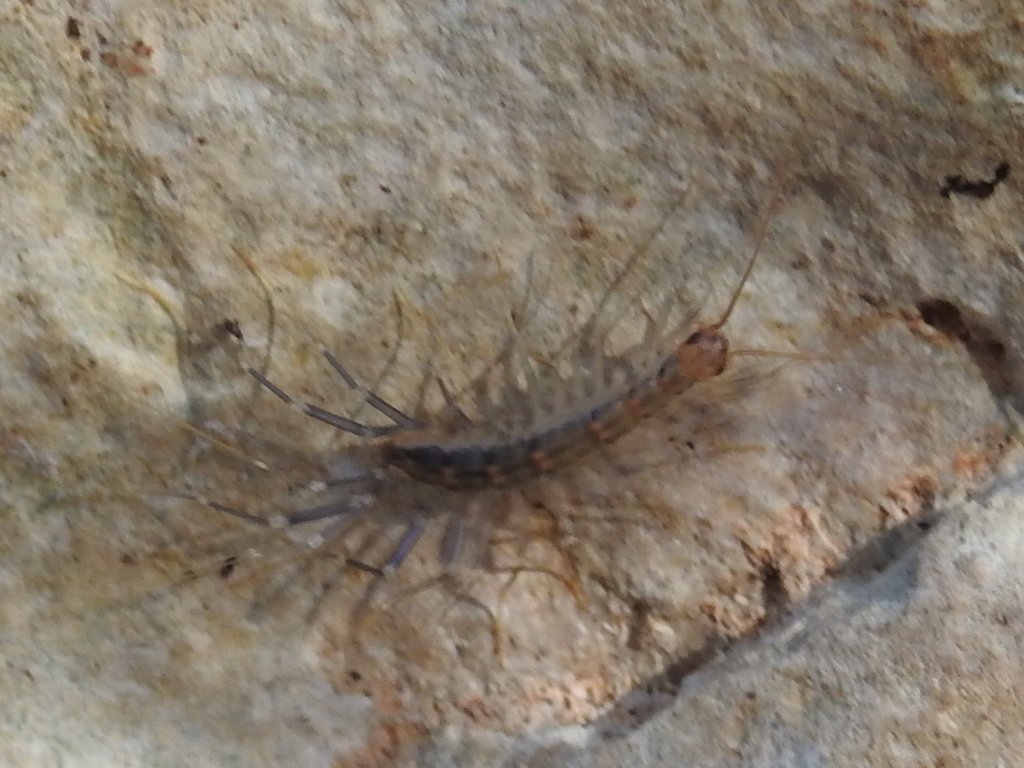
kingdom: Animalia
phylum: Arthropoda
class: Chilopoda
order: Scutigeromorpha
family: Scutigeridae
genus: Scutigera
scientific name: Scutigera coleoptrata
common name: House centipede
